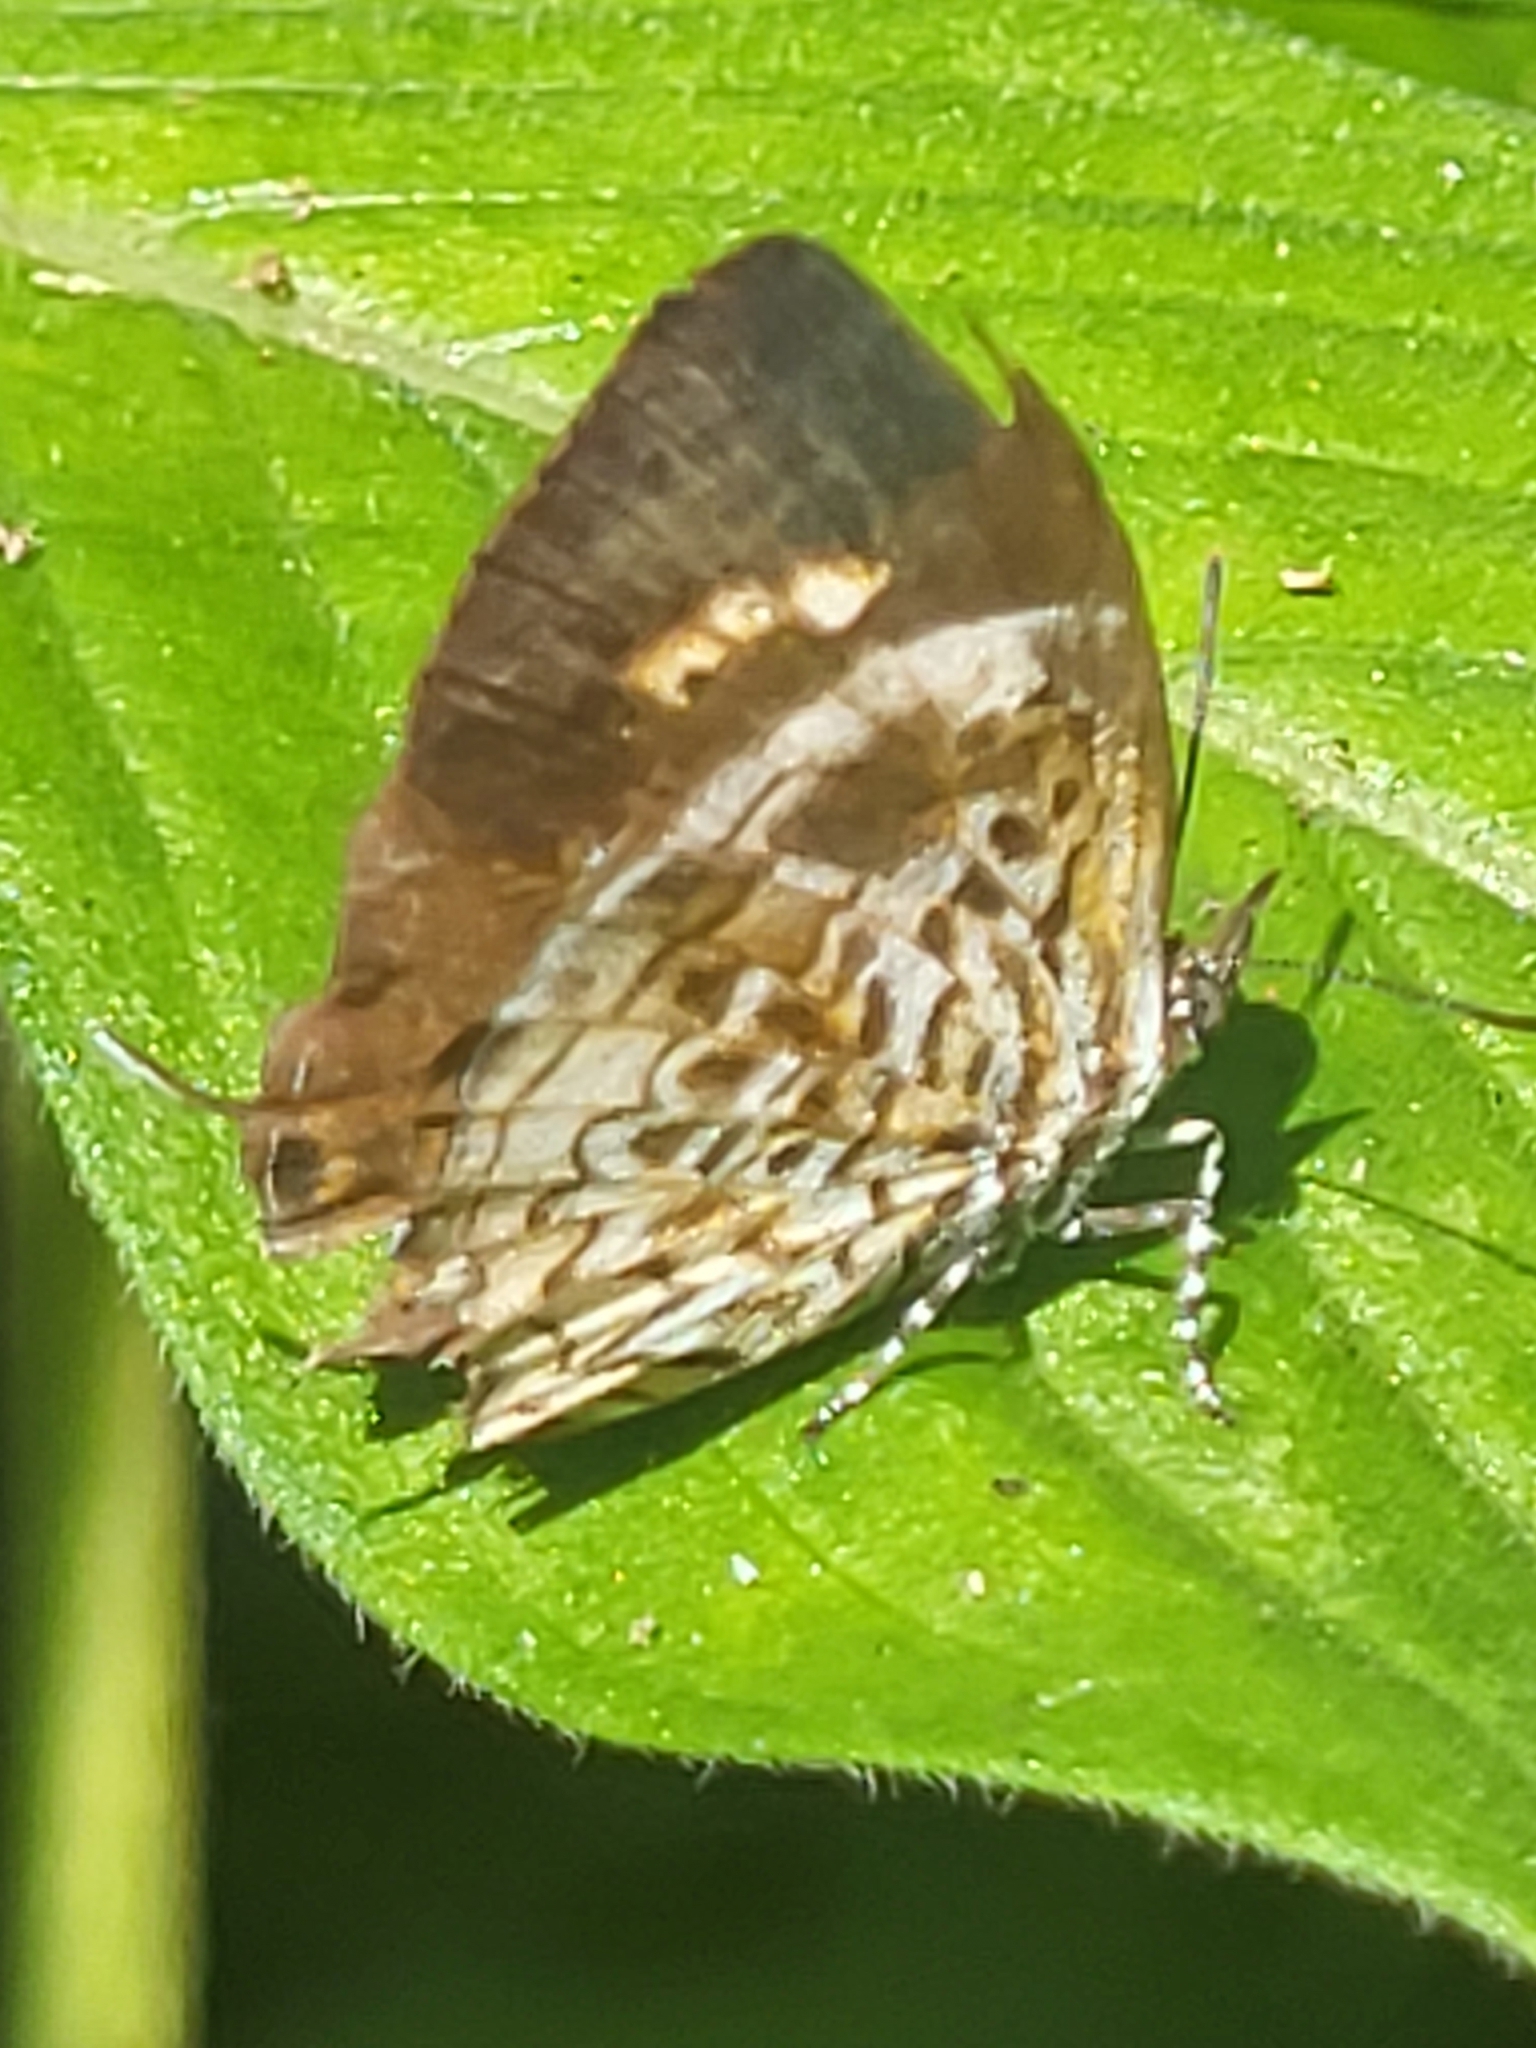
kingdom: Animalia
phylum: Arthropoda
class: Insecta
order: Lepidoptera
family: Lycaenidae
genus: Rathinda
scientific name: Rathinda amor
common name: Monkey puzzle
